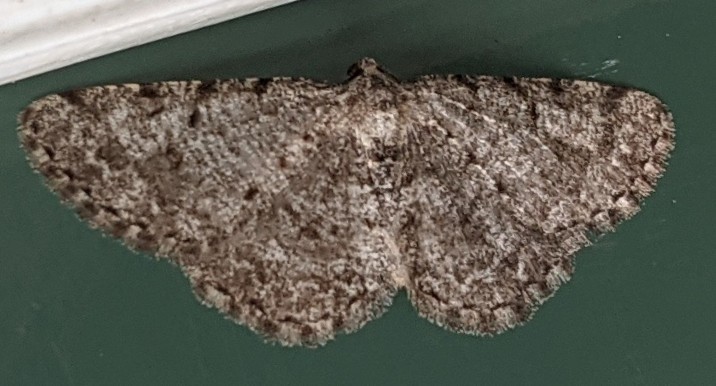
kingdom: Animalia
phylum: Arthropoda
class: Insecta
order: Lepidoptera
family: Geometridae
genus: Aethalura
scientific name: Aethalura intertexta
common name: Four-barred gray
